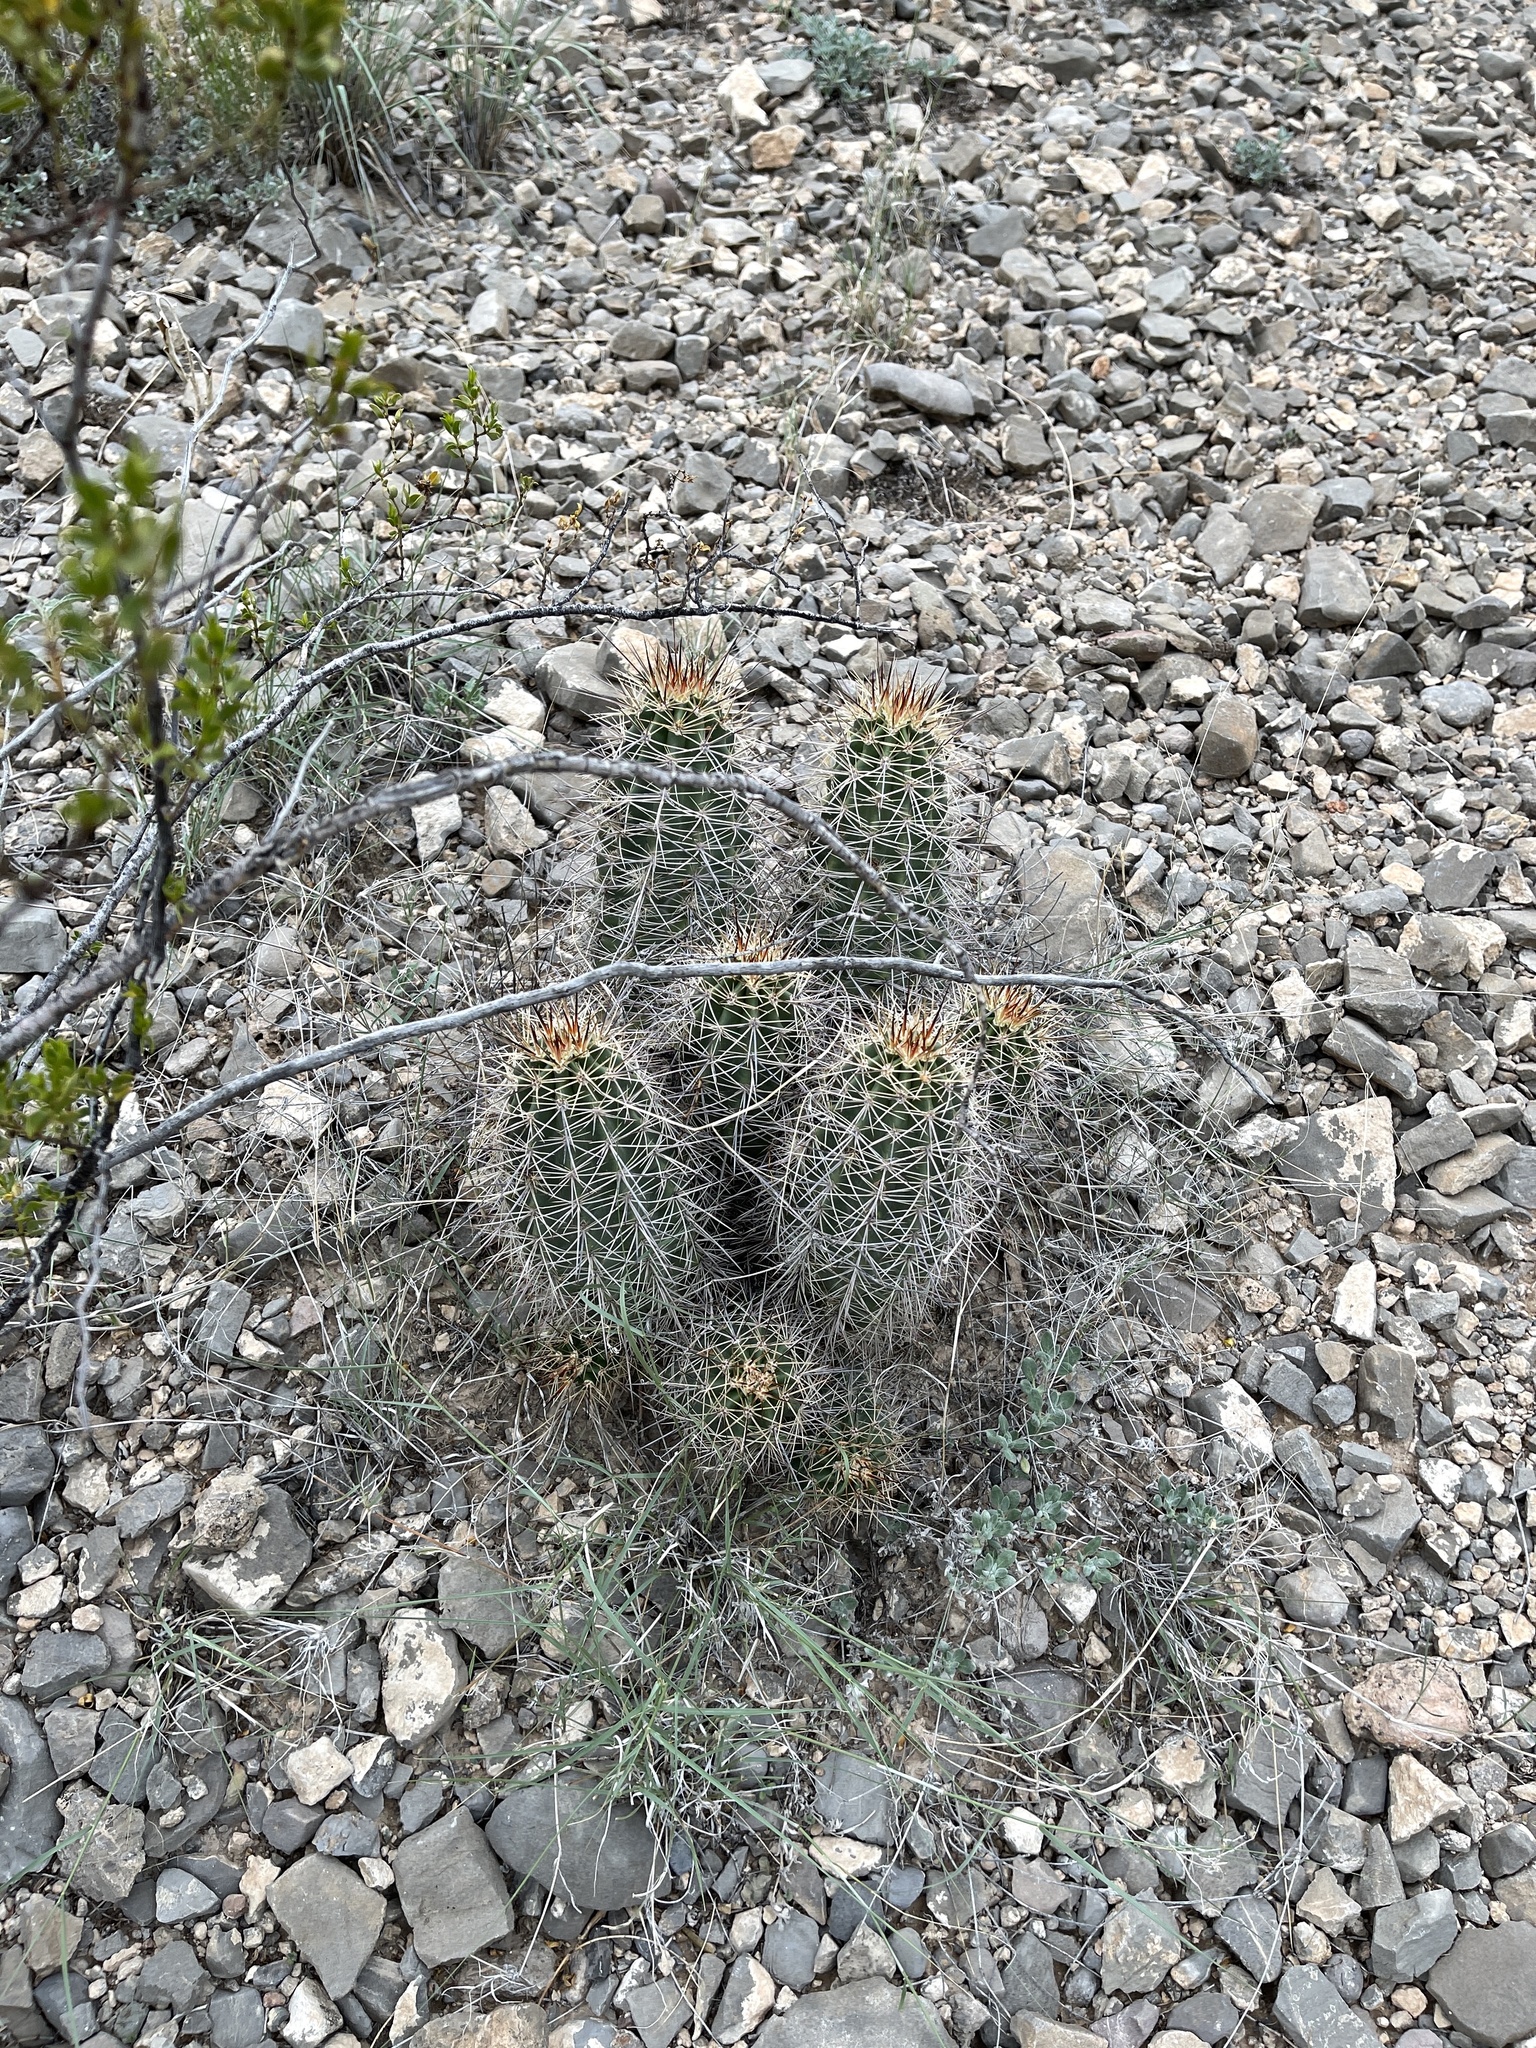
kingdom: Plantae
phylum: Tracheophyta
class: Magnoliopsida
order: Caryophyllales
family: Cactaceae
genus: Echinocereus
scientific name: Echinocereus coccineus
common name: Scarlet hedgehog cactus
